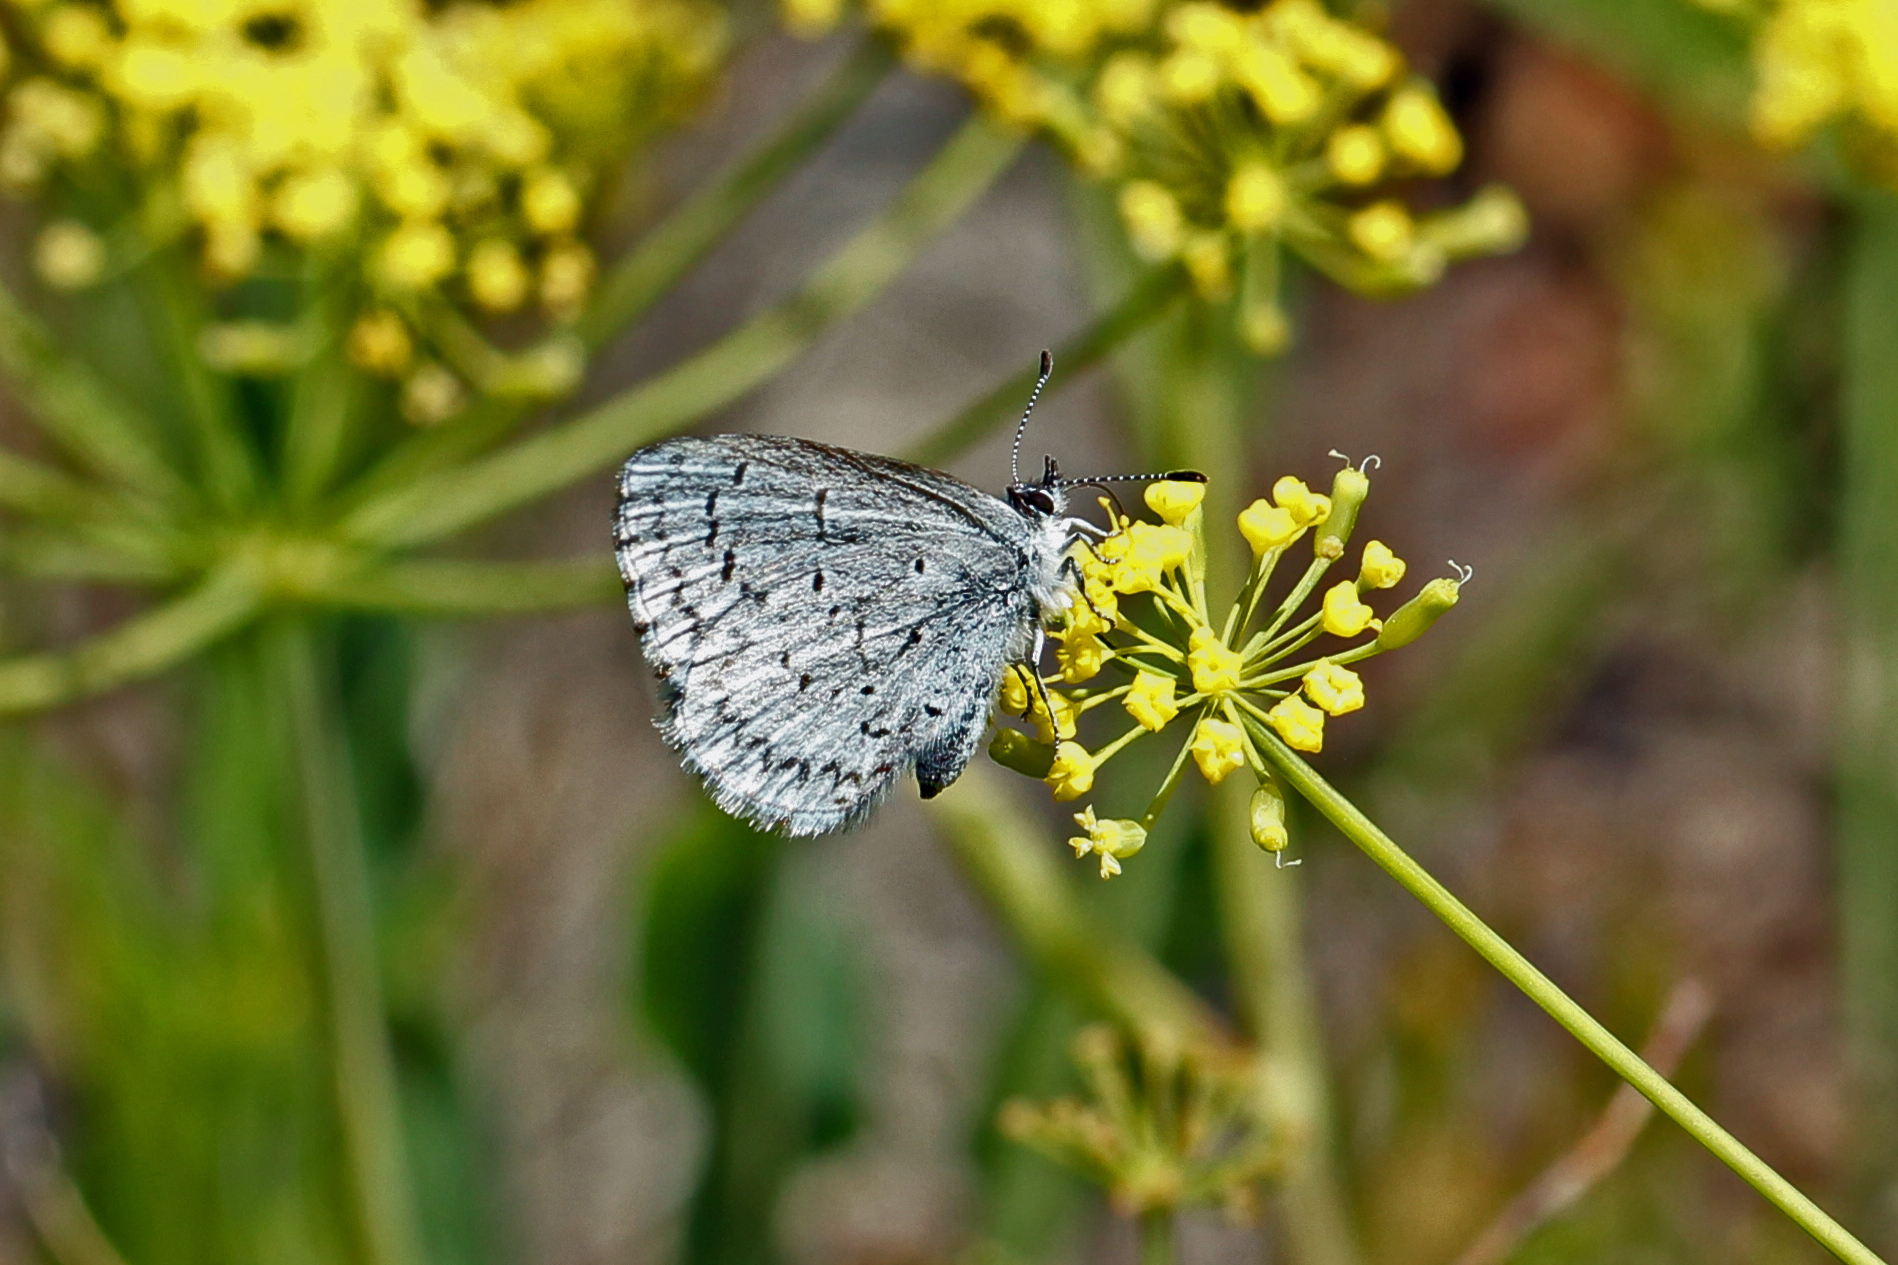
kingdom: Animalia
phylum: Arthropoda
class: Insecta
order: Lepidoptera
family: Lycaenidae
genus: Celastrina
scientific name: Celastrina ladon
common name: Spring azure
